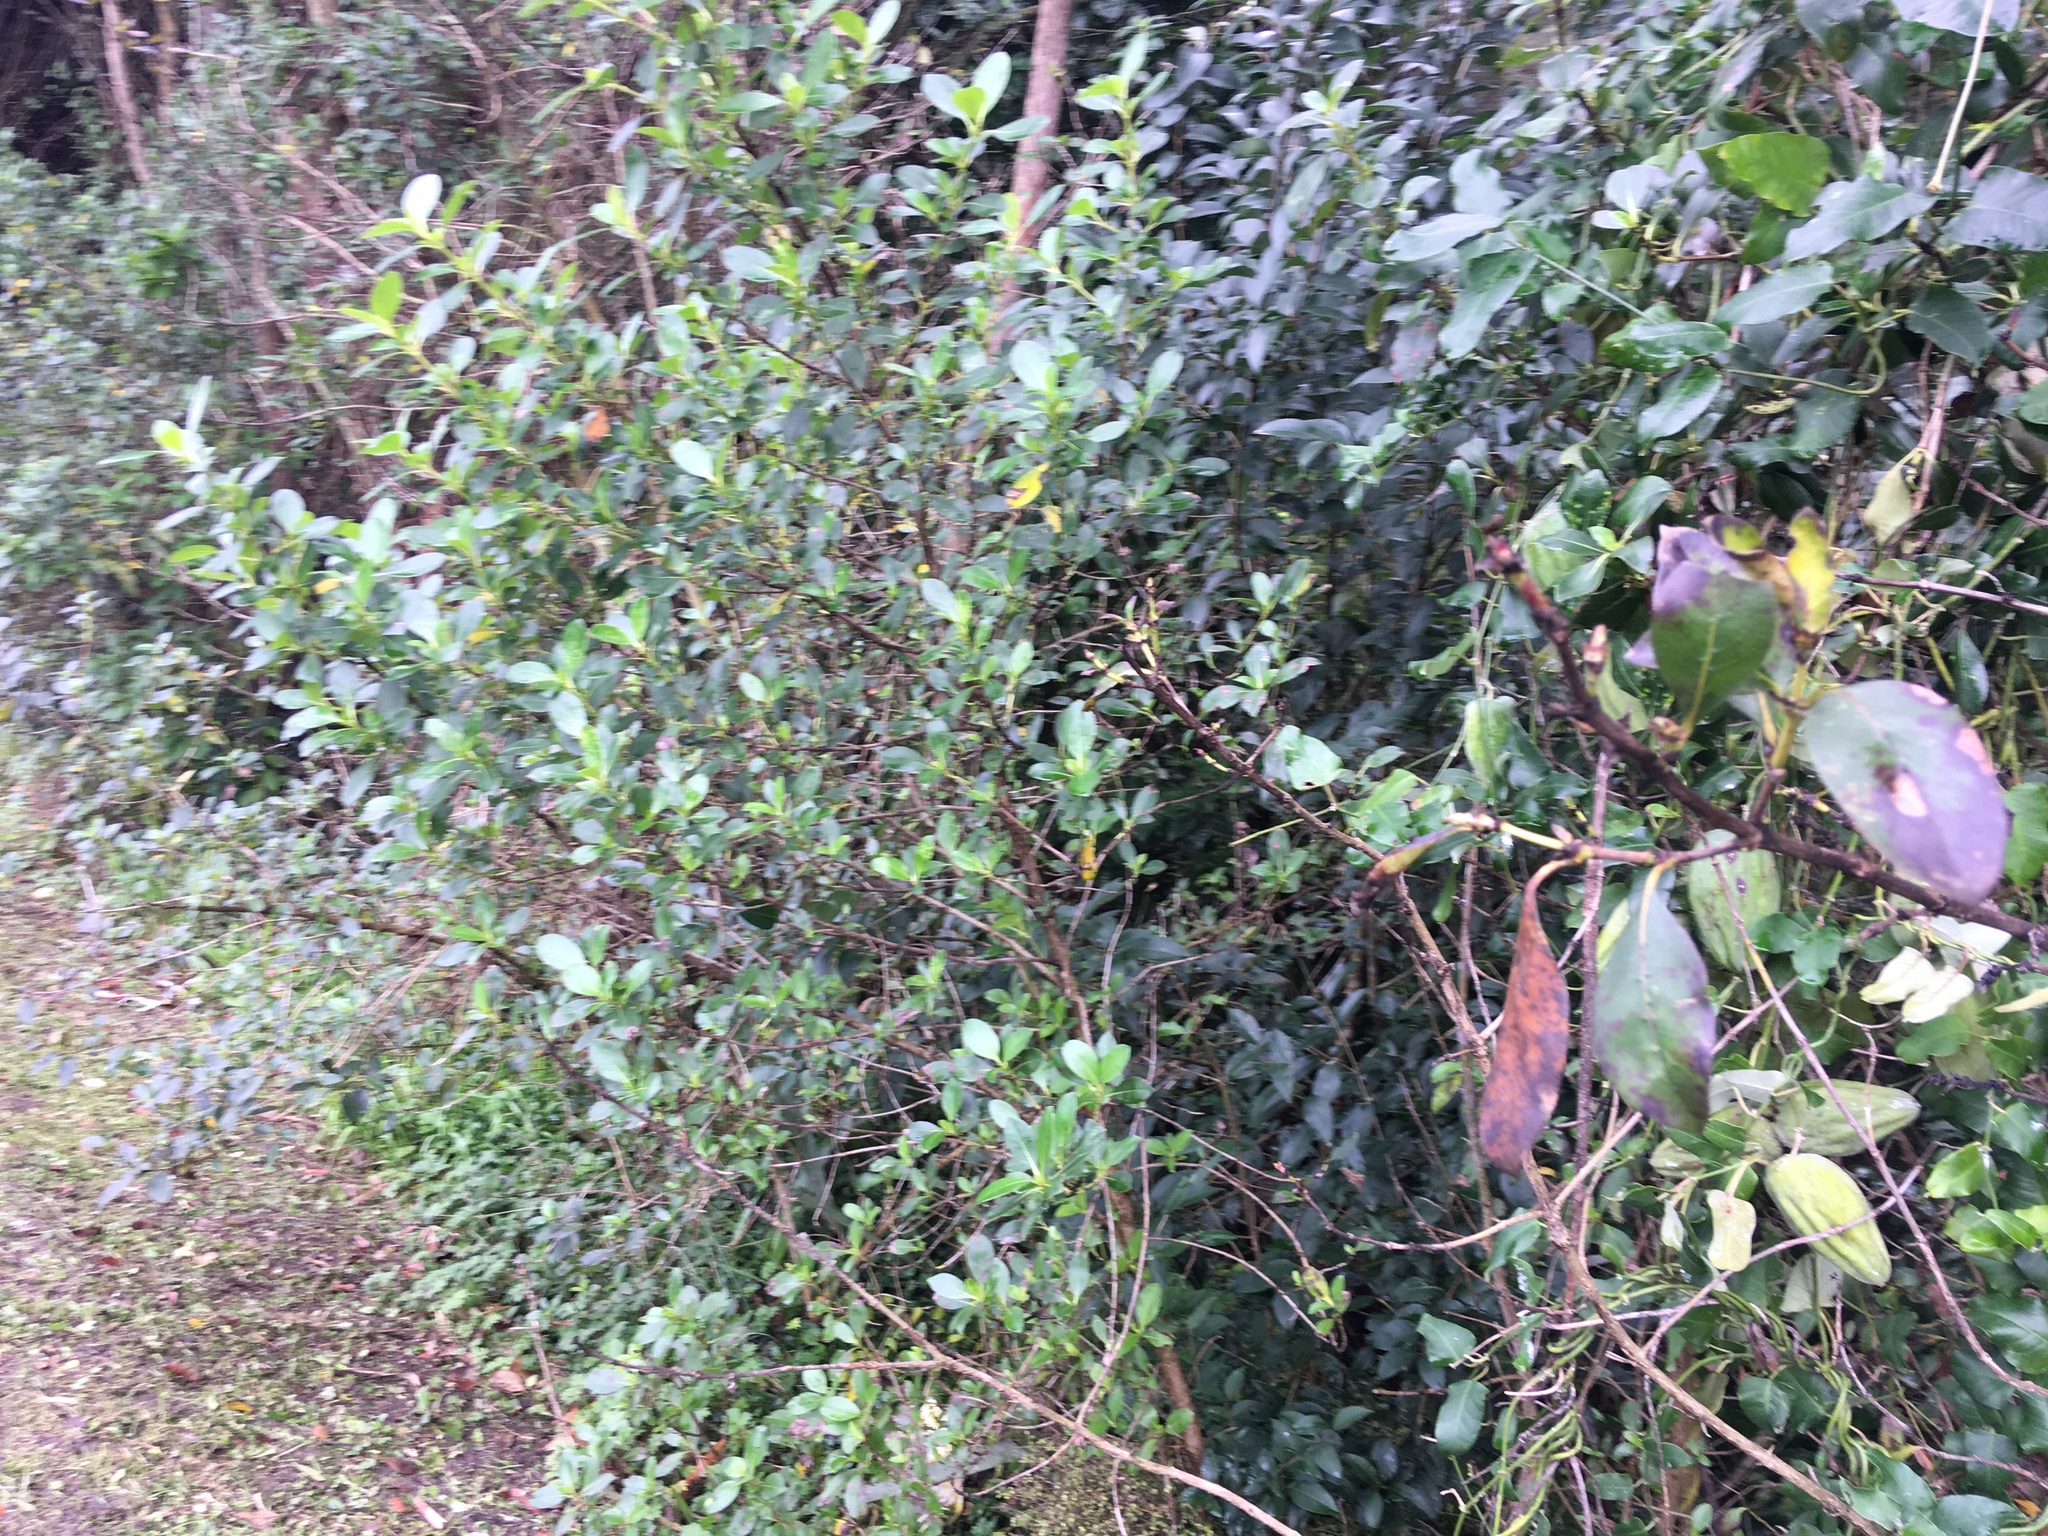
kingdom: Plantae
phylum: Tracheophyta
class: Magnoliopsida
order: Gentianales
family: Rubiaceae
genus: Coprosma
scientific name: Coprosma robusta
